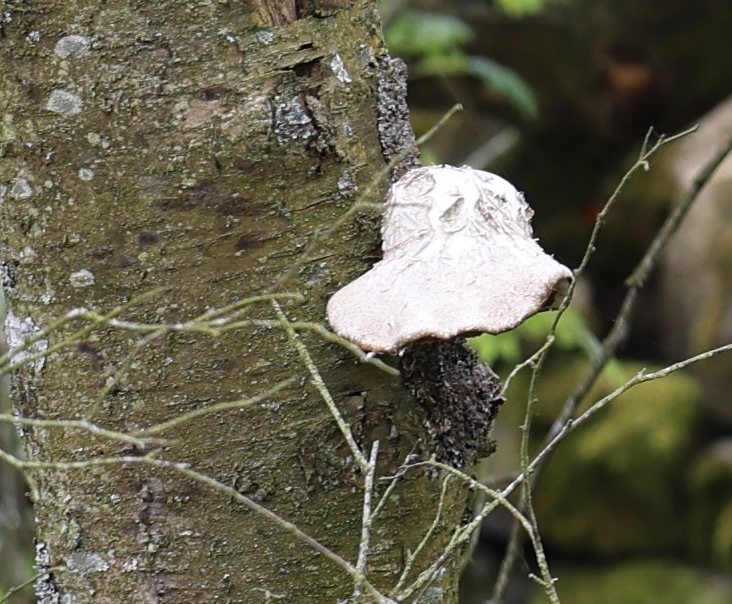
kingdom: Fungi
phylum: Basidiomycota
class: Agaricomycetes
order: Polyporales
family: Fomitopsidaceae
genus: Fomitopsis
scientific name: Fomitopsis betulina
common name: Birch polypore
